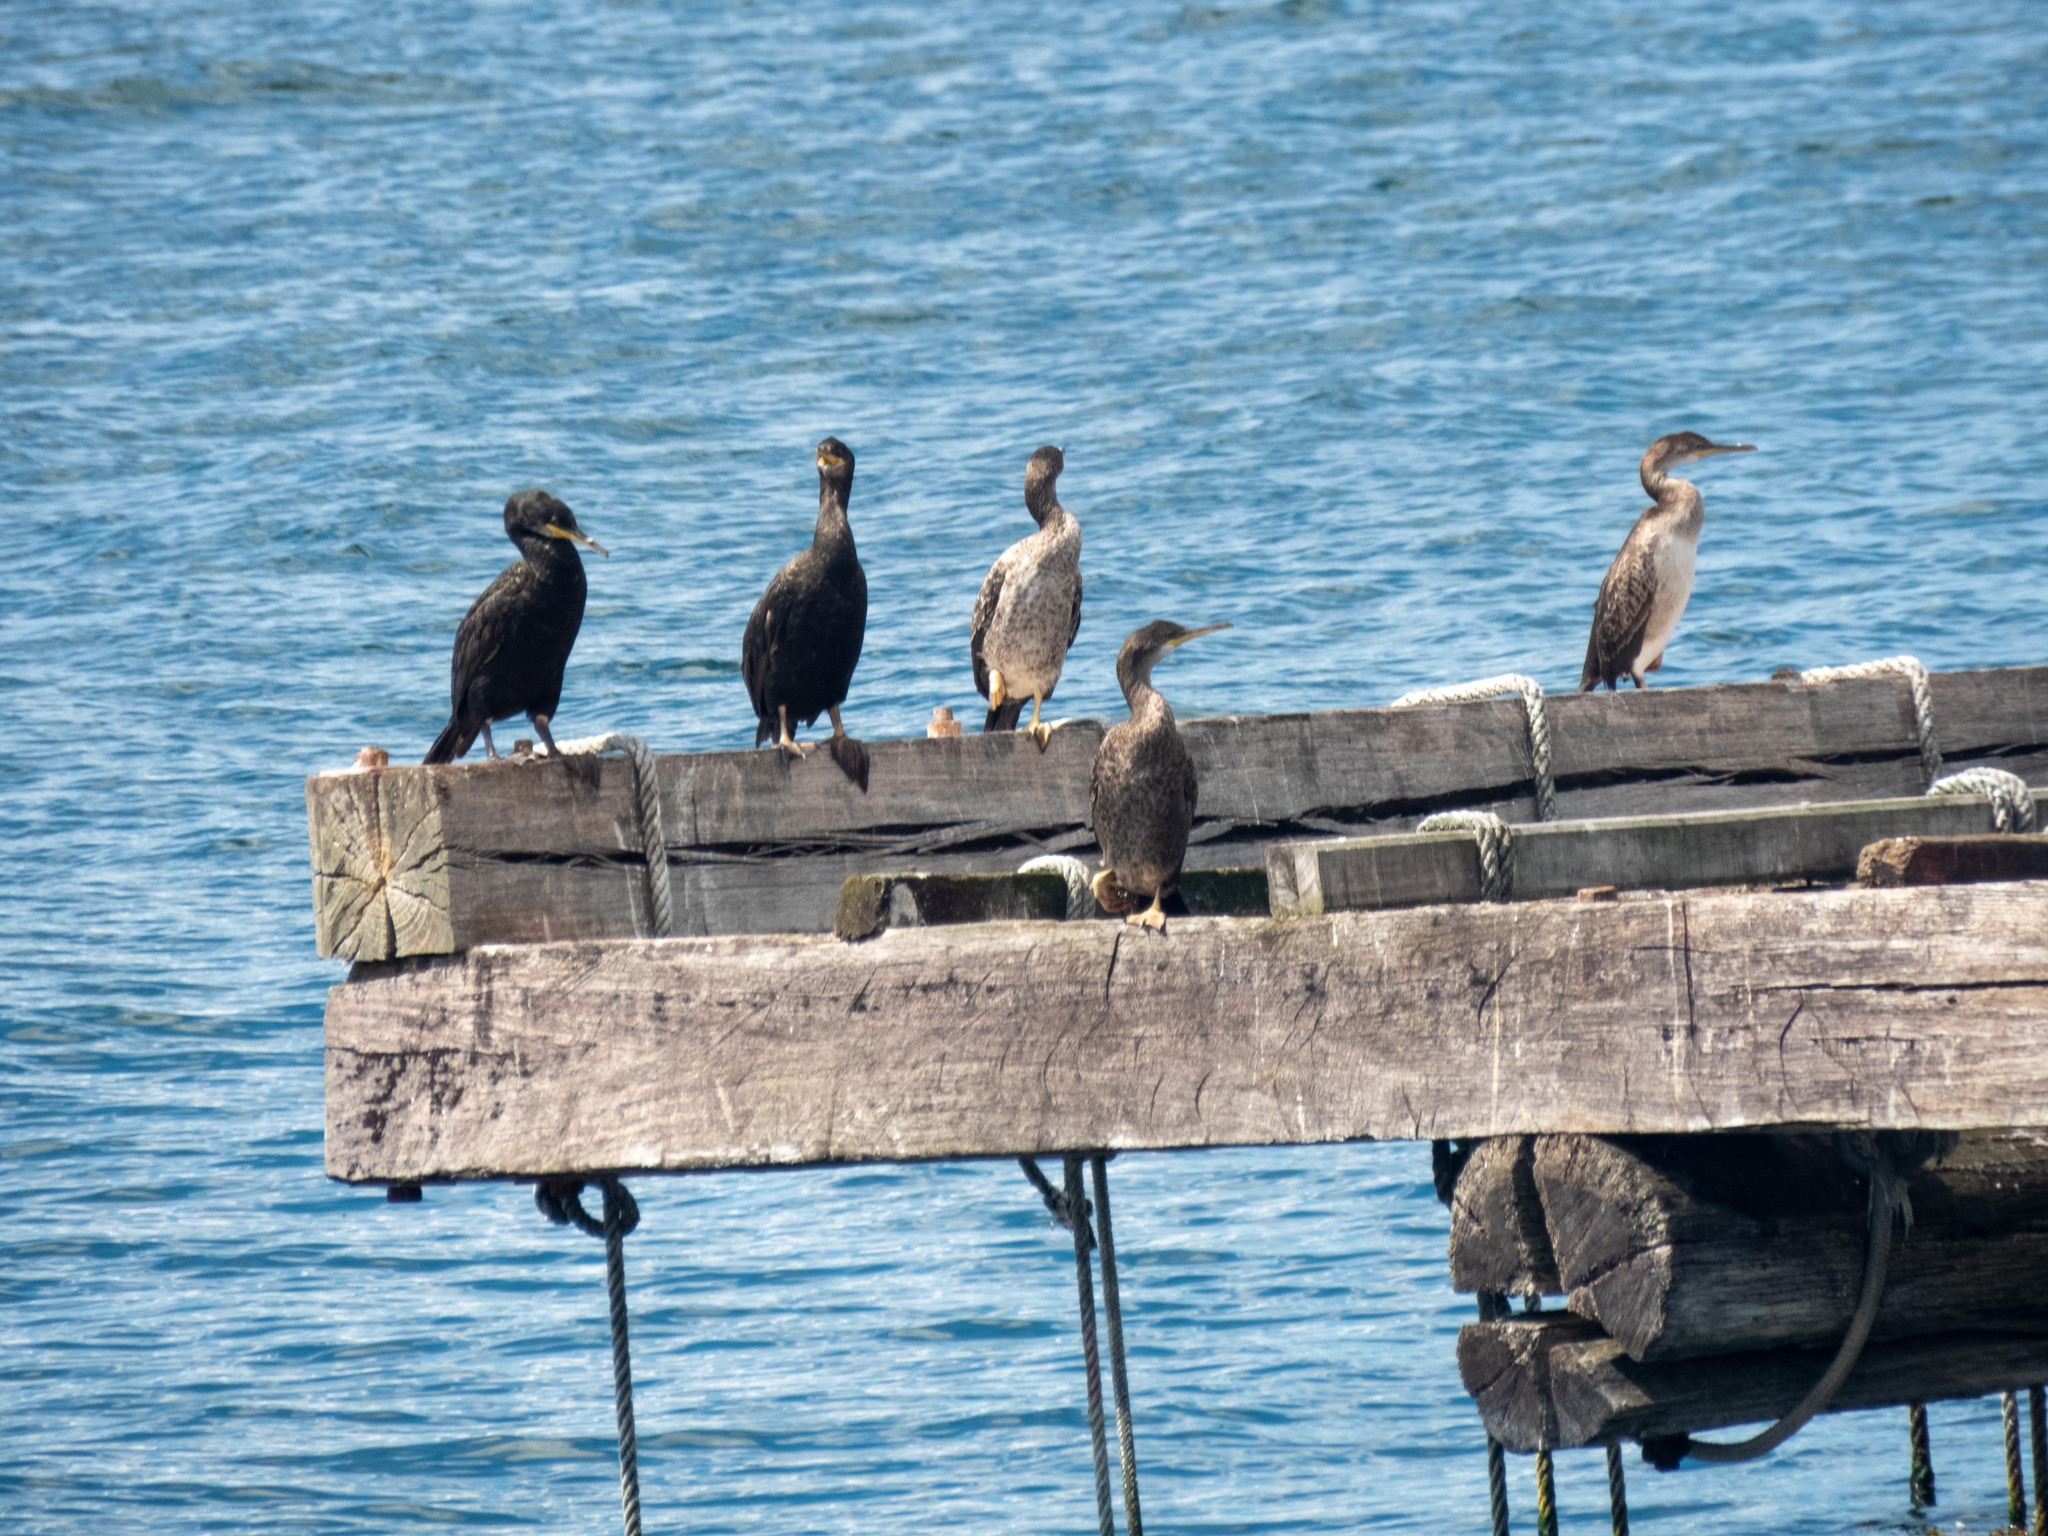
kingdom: Animalia
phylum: Chordata
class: Aves
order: Suliformes
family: Phalacrocoracidae
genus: Phalacrocorax
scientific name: Phalacrocorax aristotelis
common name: European shag
